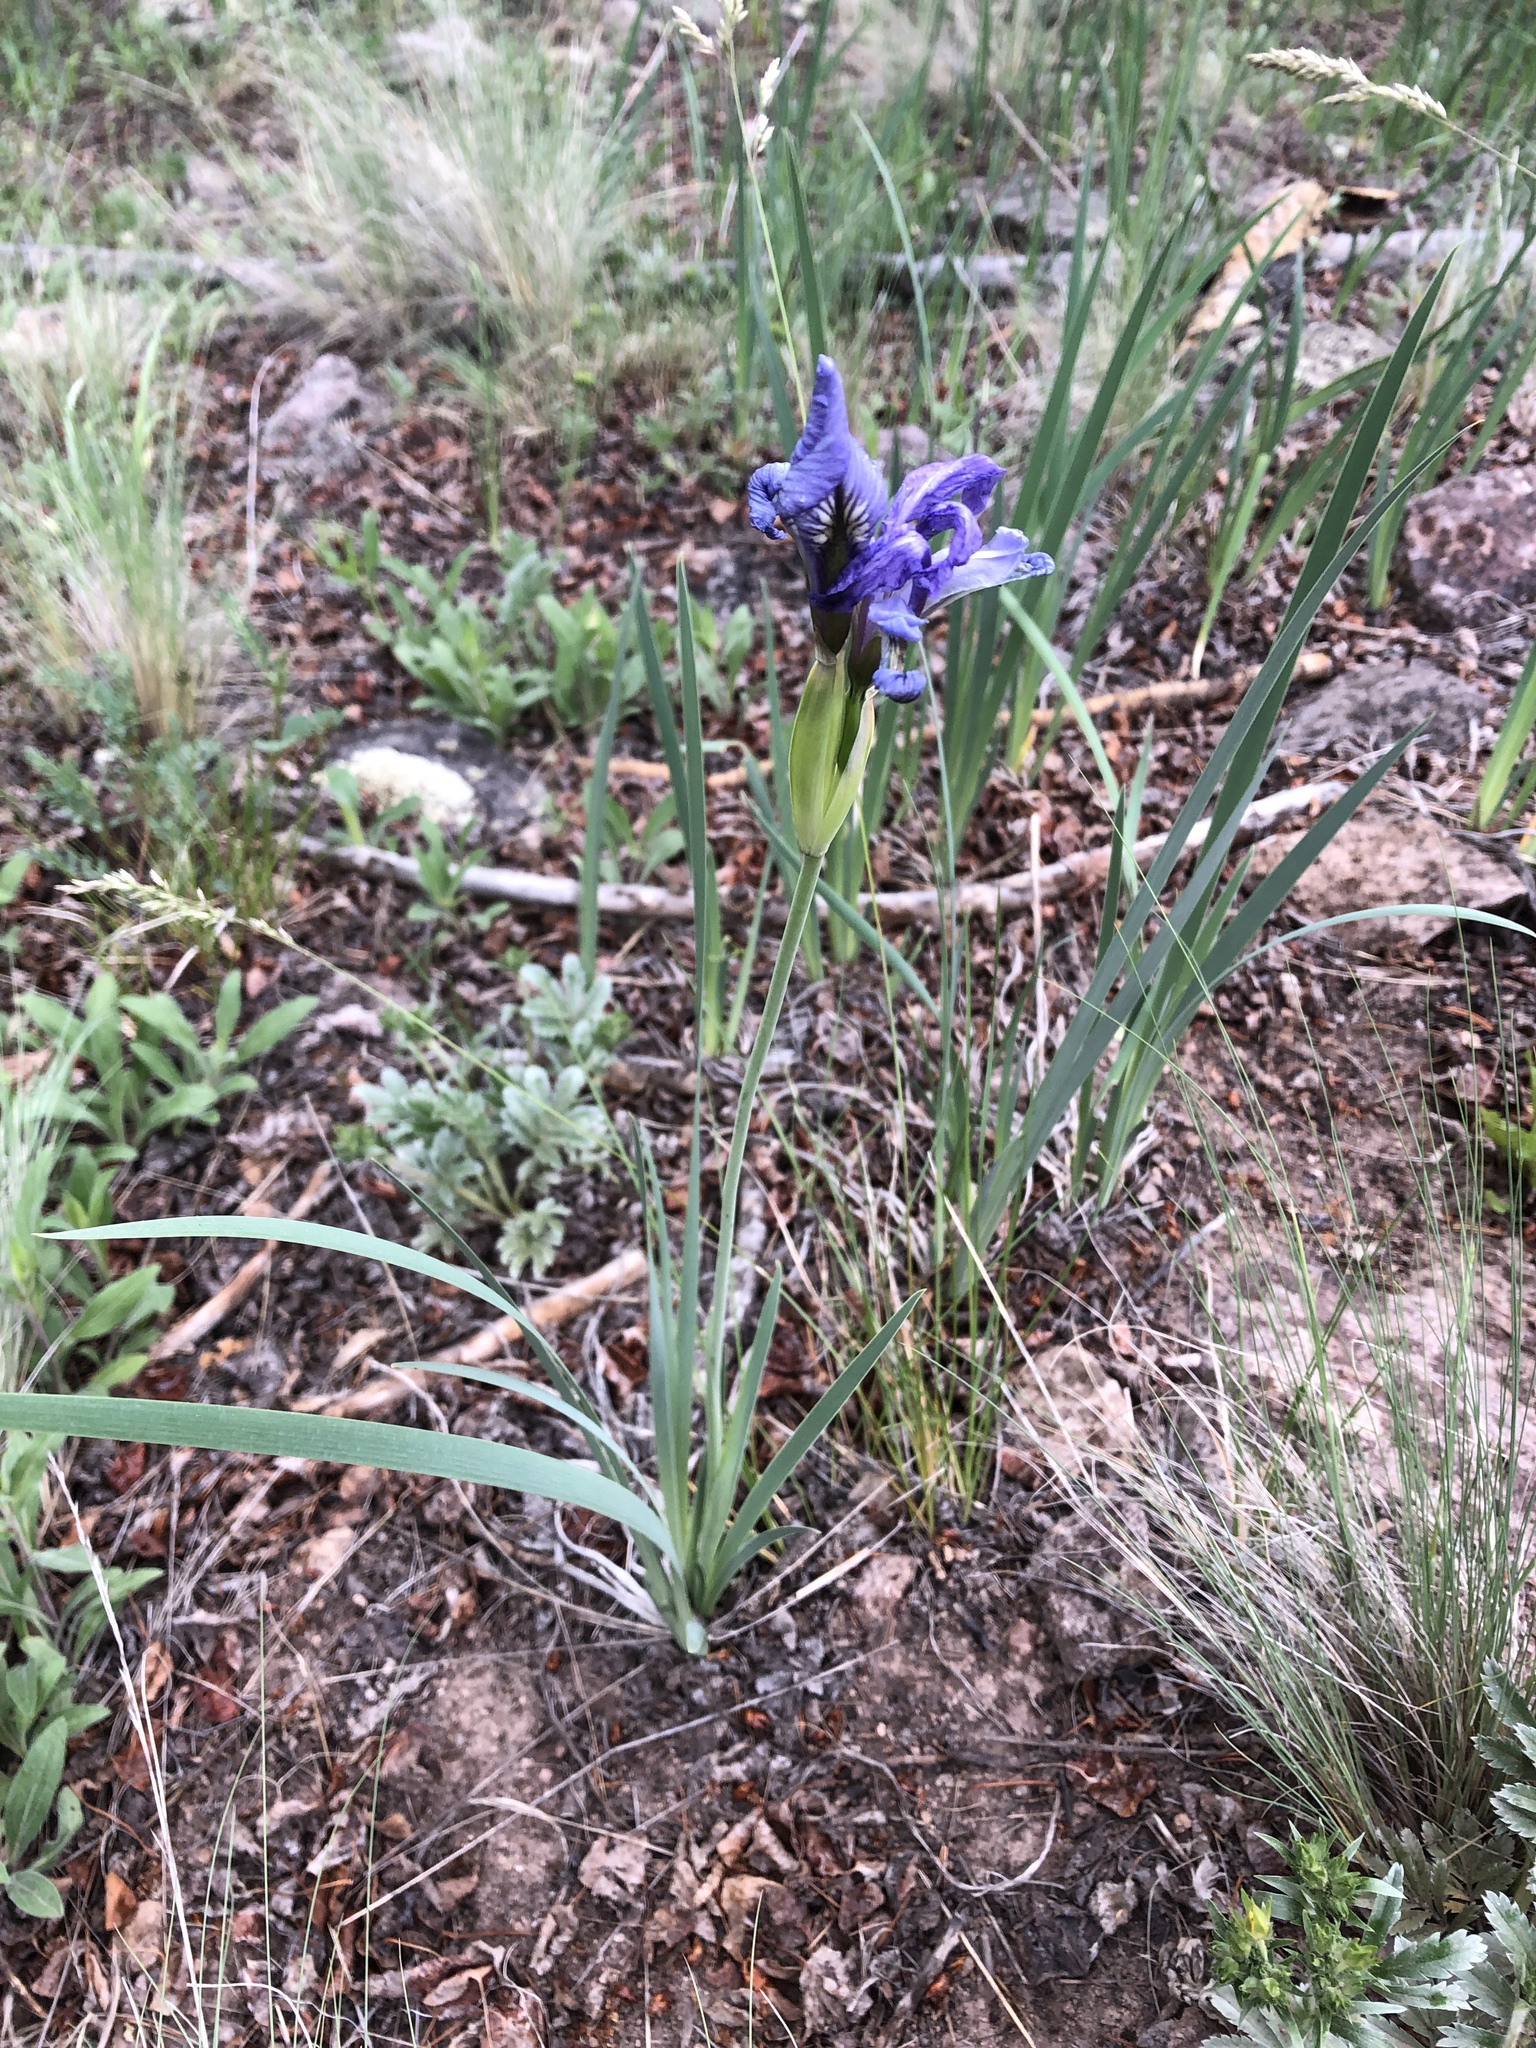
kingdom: Plantae
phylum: Tracheophyta
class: Liliopsida
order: Asparagales
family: Iridaceae
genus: Iris
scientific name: Iris missouriensis
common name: Rocky mountain iris
